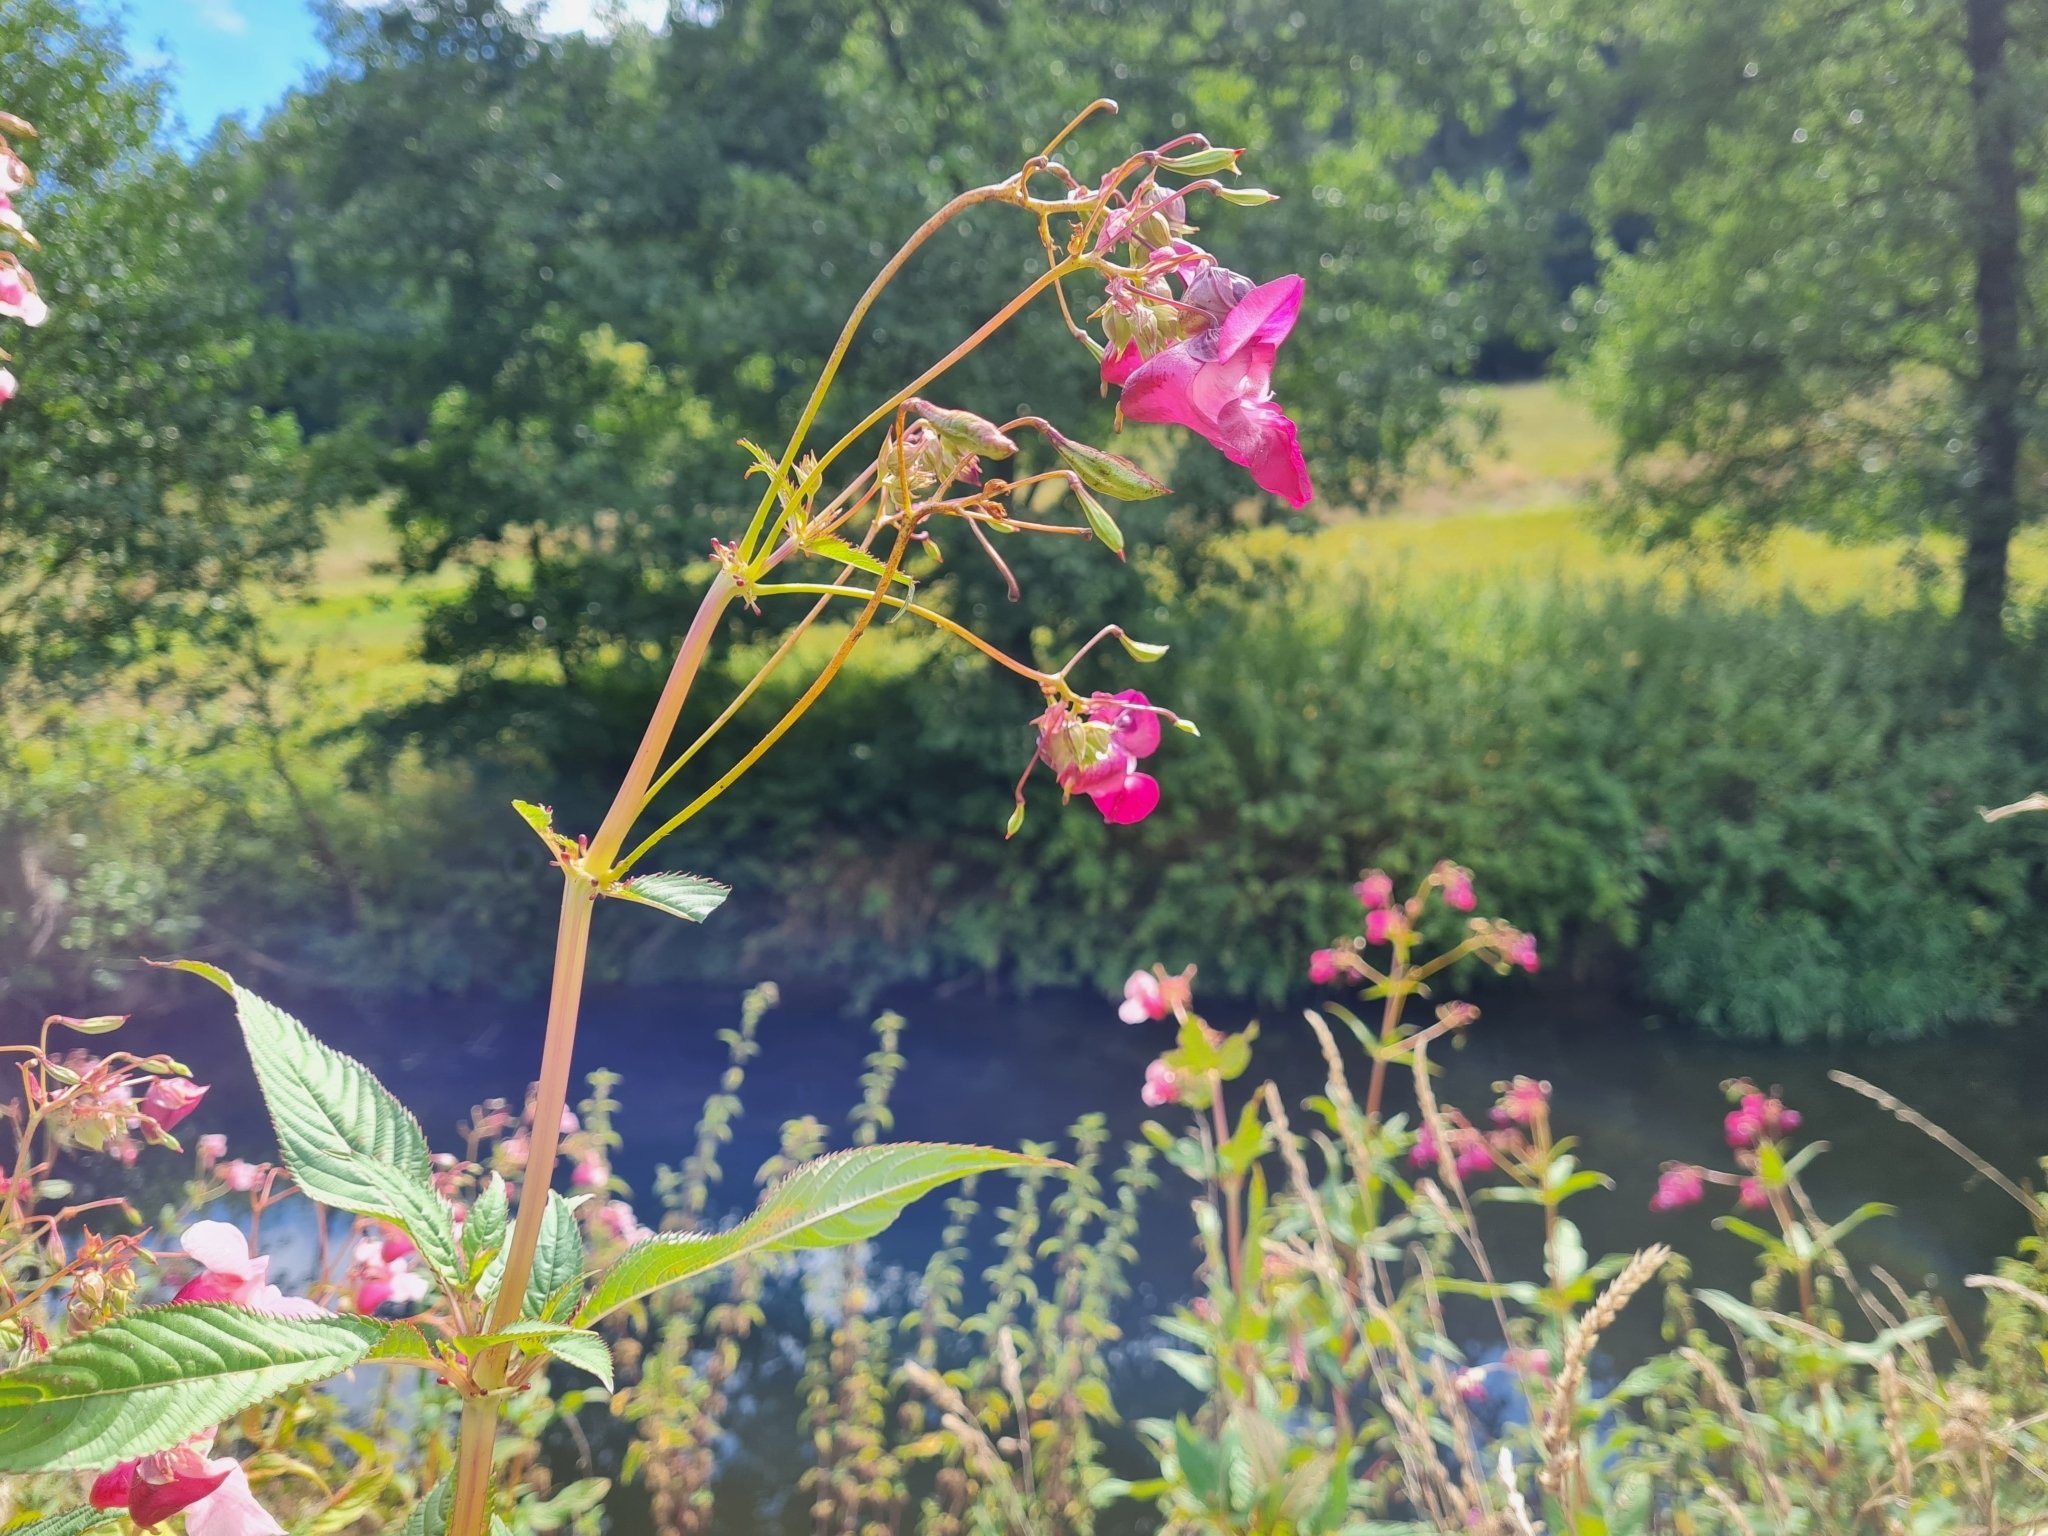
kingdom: Plantae
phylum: Tracheophyta
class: Magnoliopsida
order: Ericales
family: Balsaminaceae
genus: Impatiens
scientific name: Impatiens glandulifera
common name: Himalayan balsam
